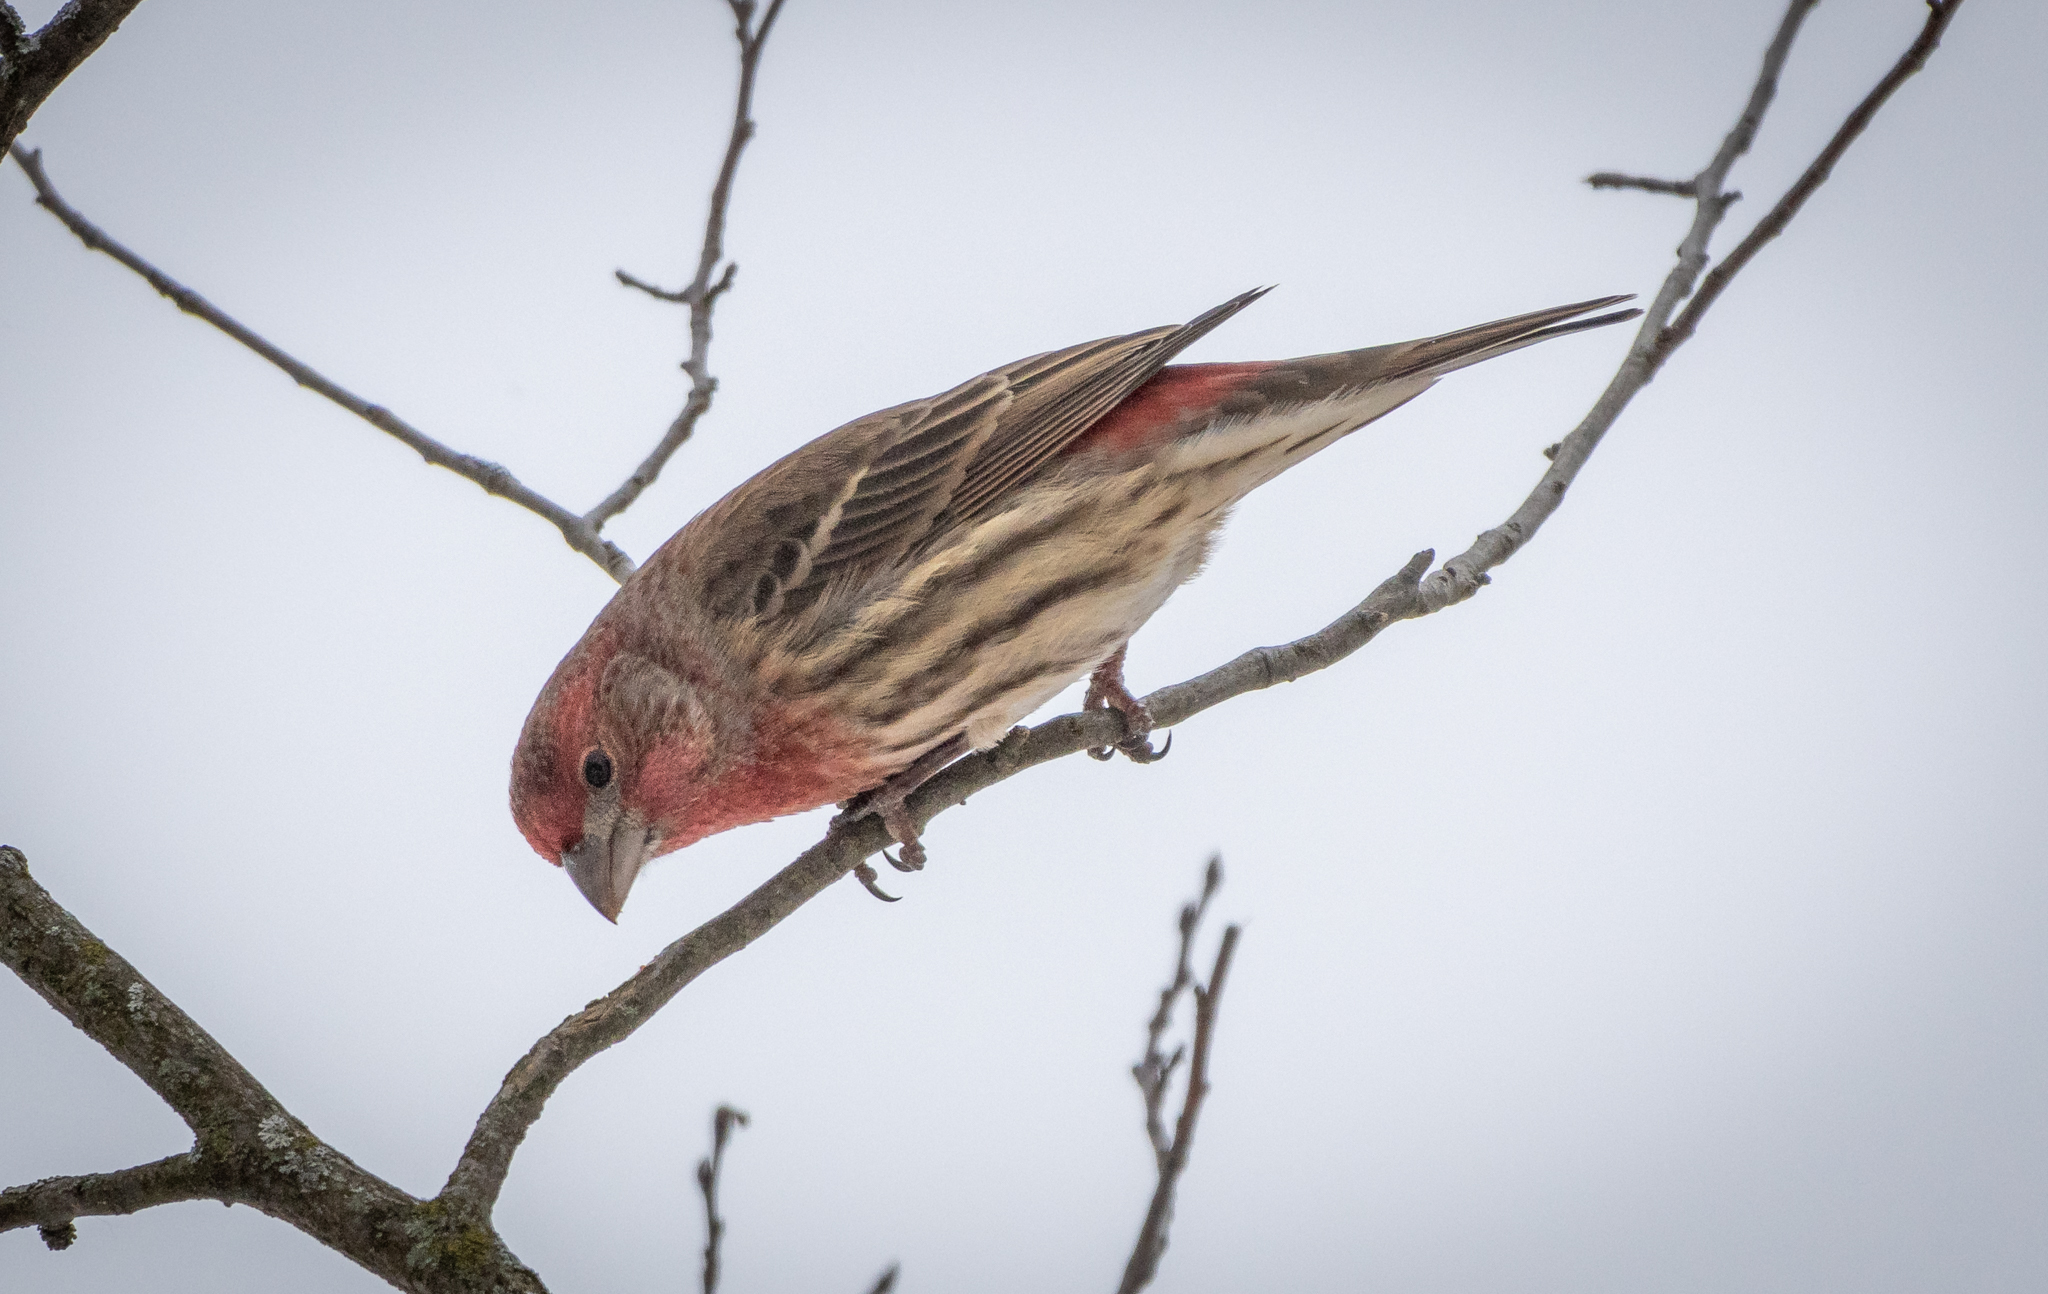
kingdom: Animalia
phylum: Chordata
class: Aves
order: Passeriformes
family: Fringillidae
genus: Haemorhous
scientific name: Haemorhous mexicanus
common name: House finch
